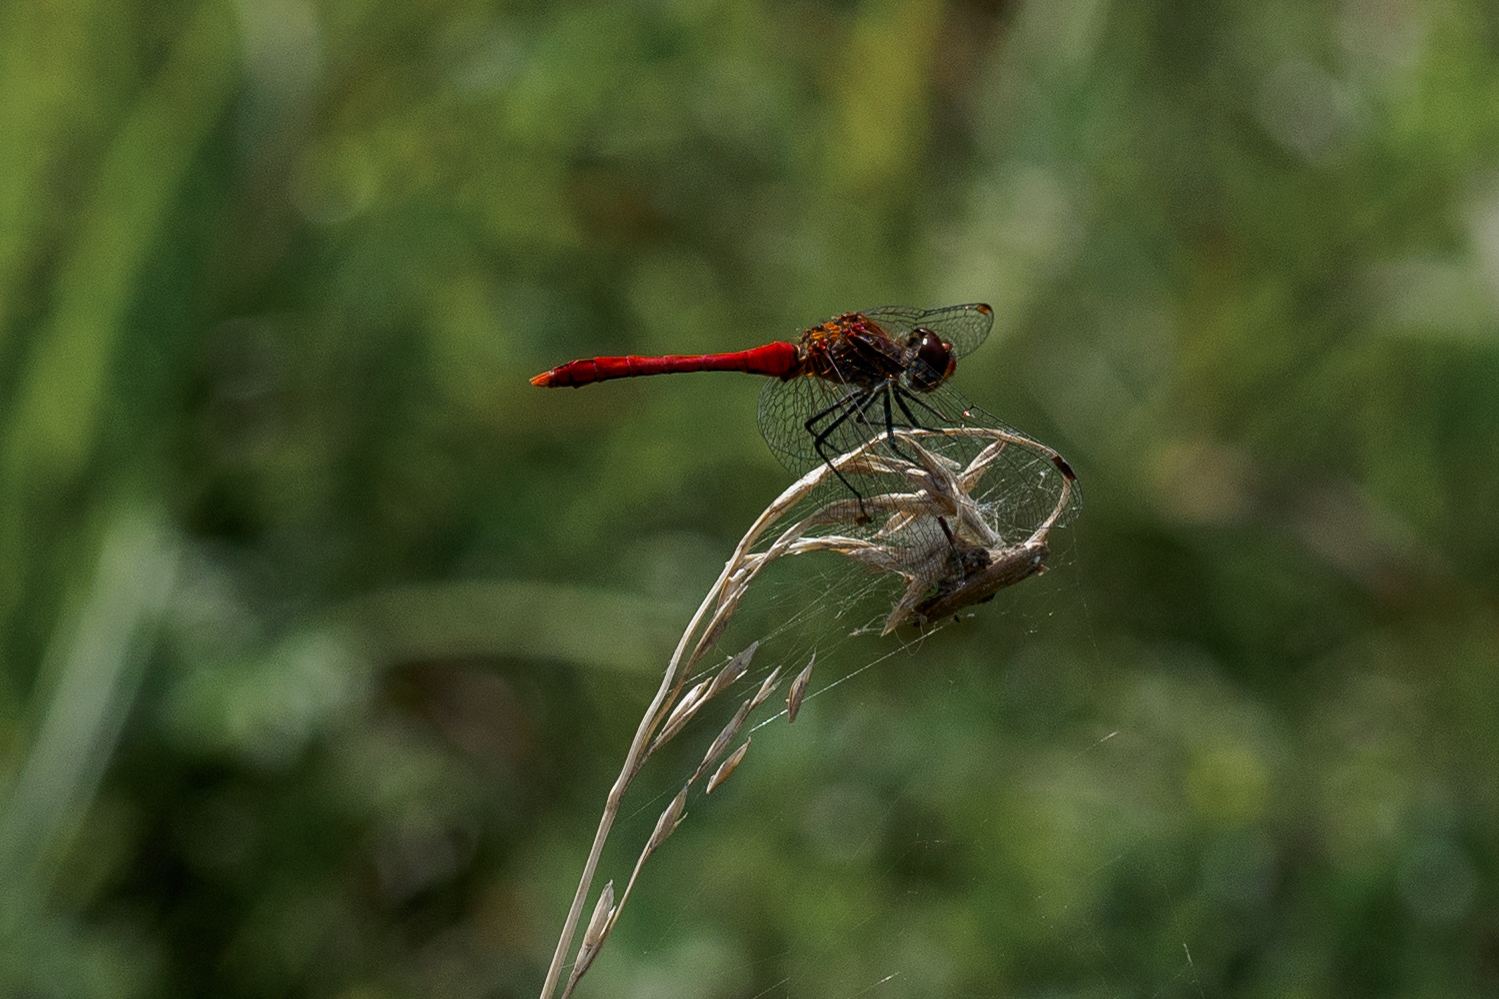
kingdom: Animalia
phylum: Arthropoda
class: Insecta
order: Odonata
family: Libellulidae
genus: Sympetrum
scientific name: Sympetrum sanguineum
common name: Ruddy darter
